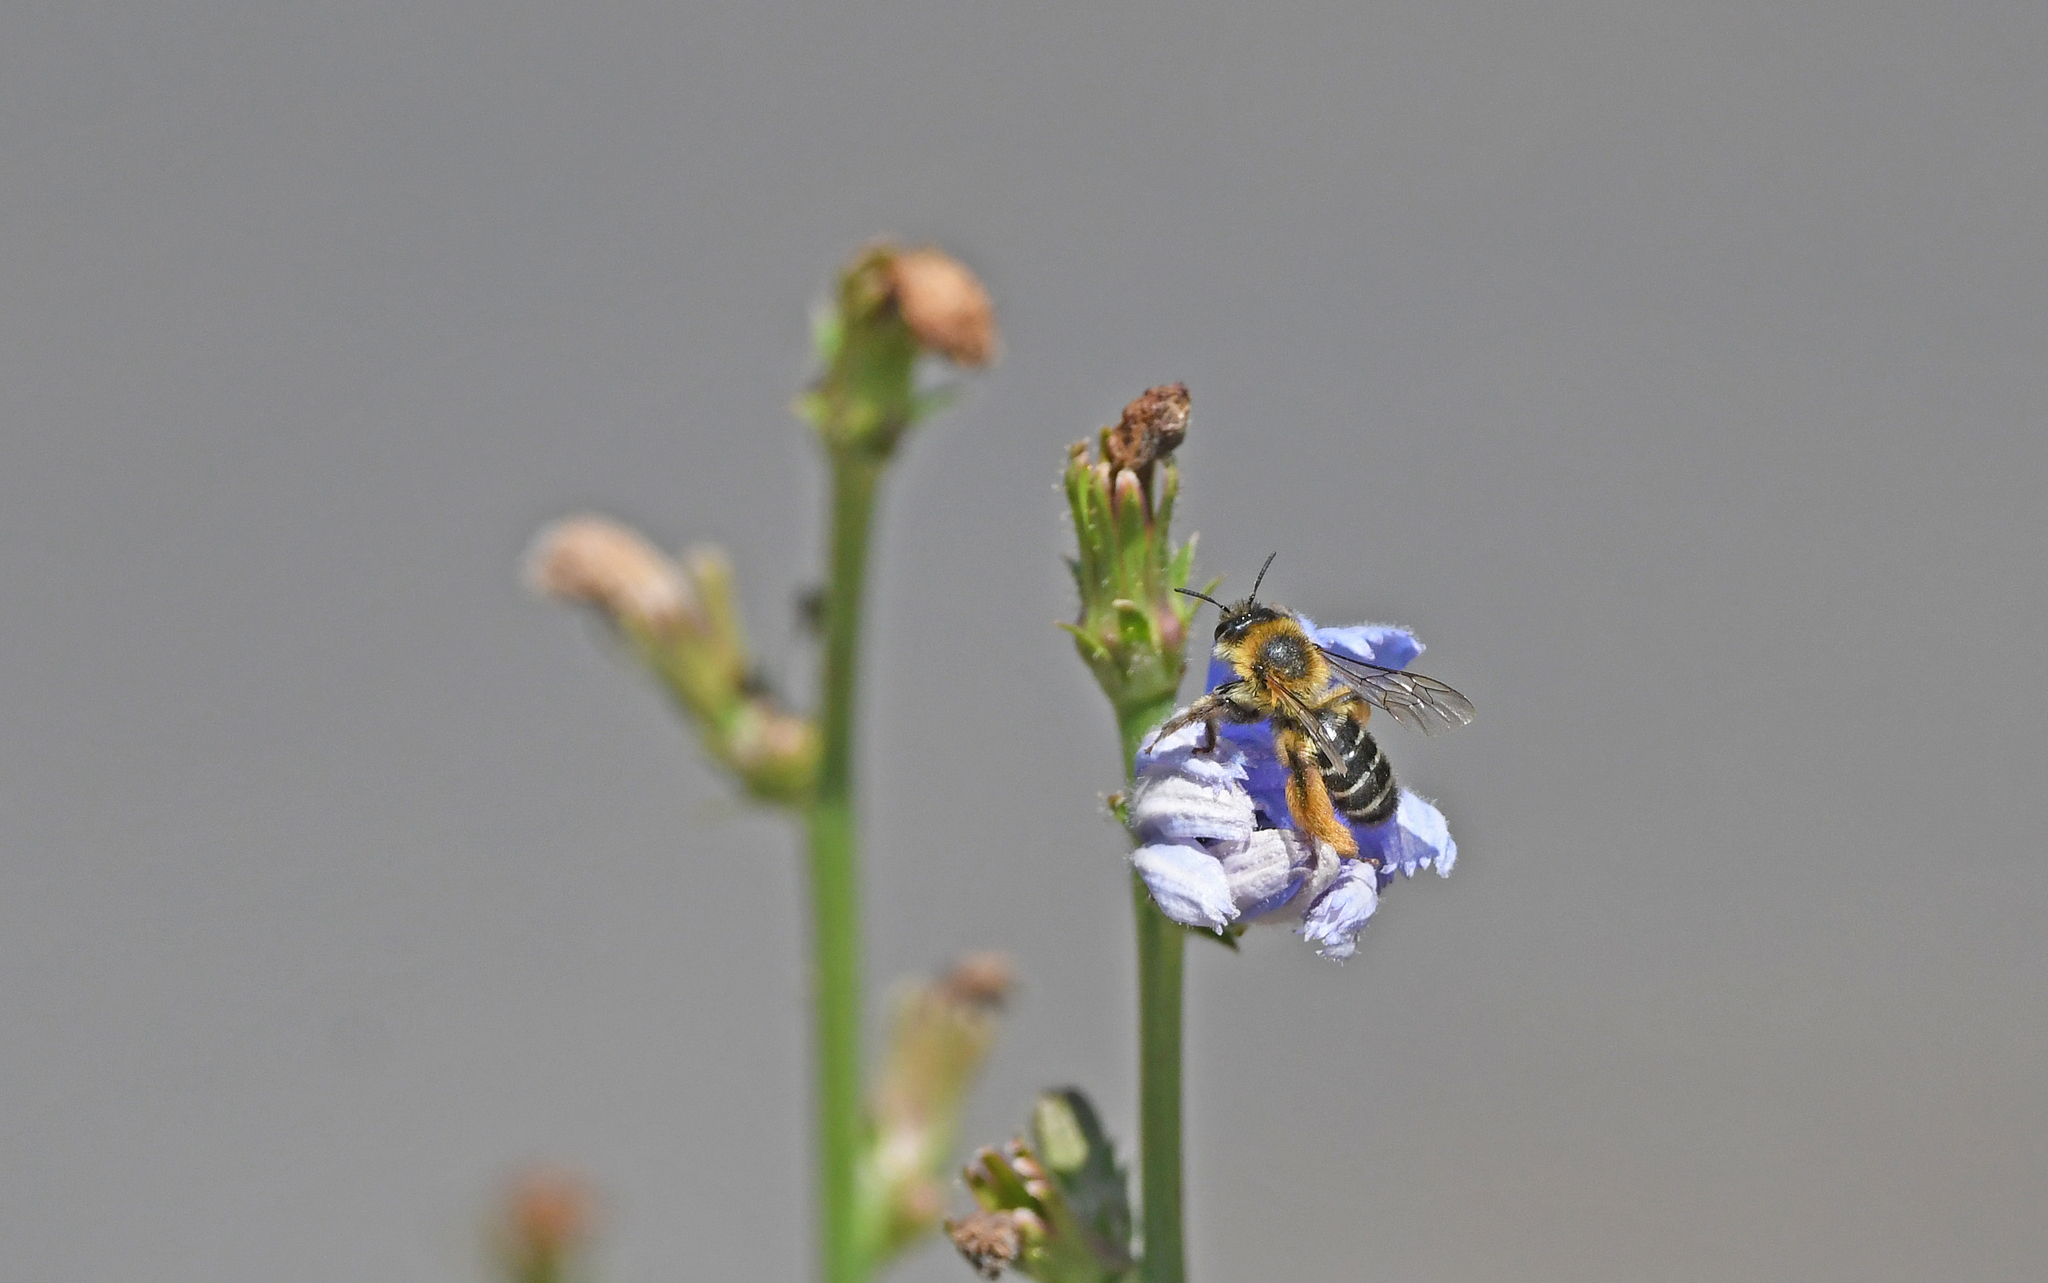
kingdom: Animalia
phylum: Arthropoda
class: Insecta
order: Hymenoptera
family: Melittidae
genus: Dasypoda
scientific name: Dasypoda hirtipes
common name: Pantaloon bee
